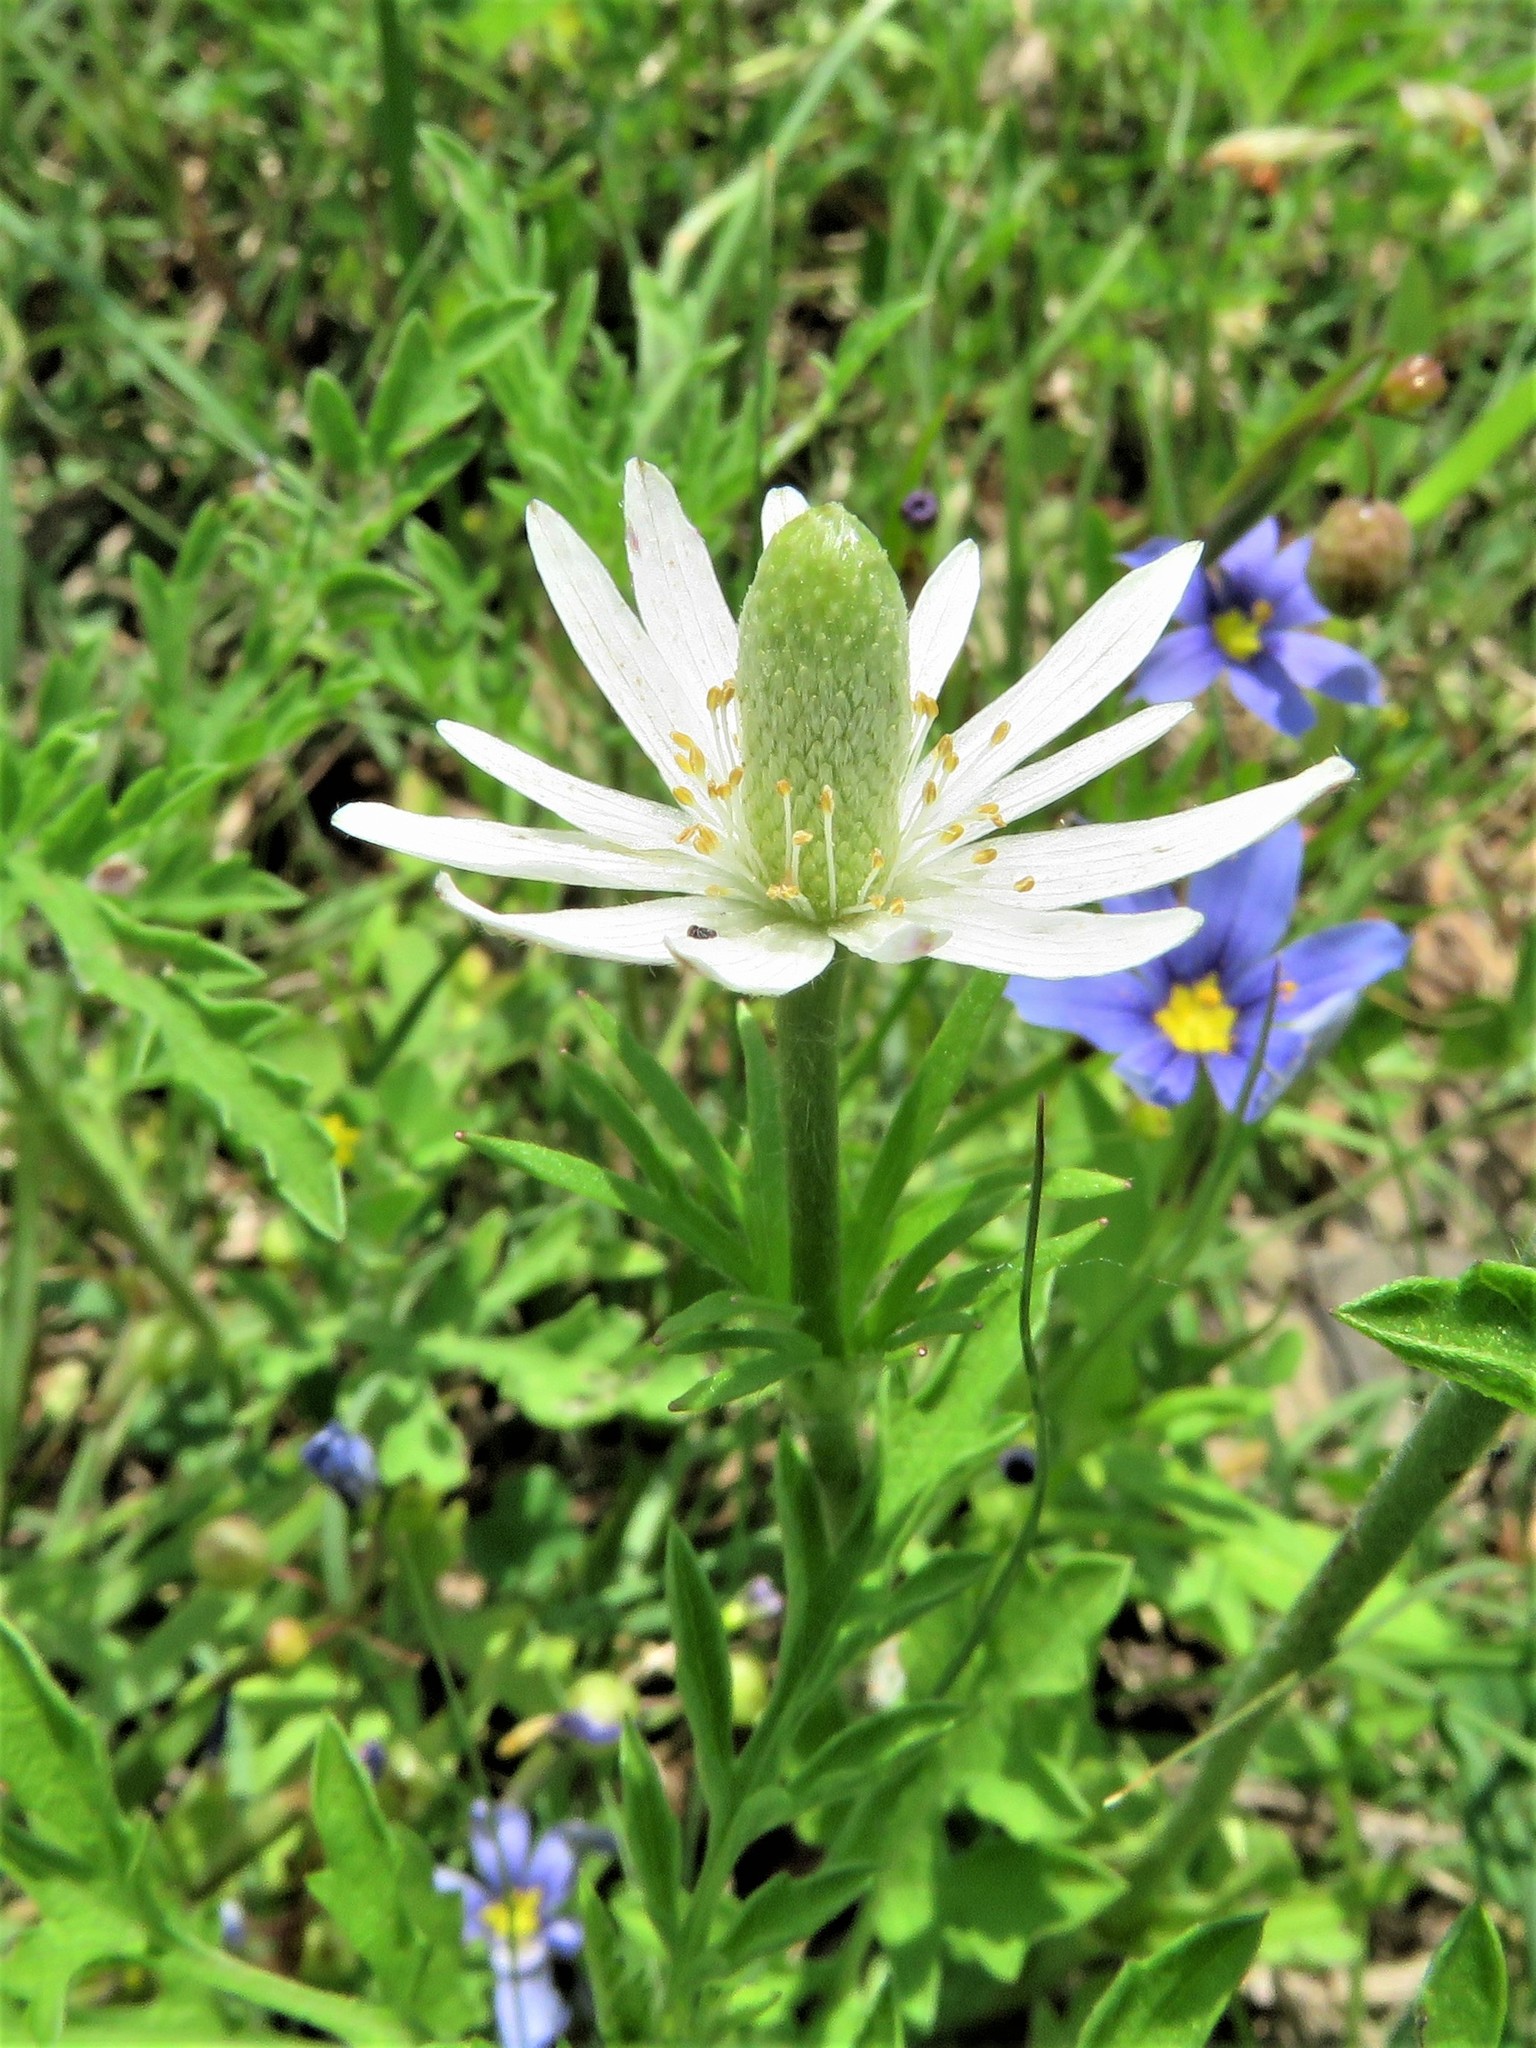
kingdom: Plantae
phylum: Tracheophyta
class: Magnoliopsida
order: Ranunculales
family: Ranunculaceae
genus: Anemone
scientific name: Anemone berlandieri
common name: Ten-petal anemone
